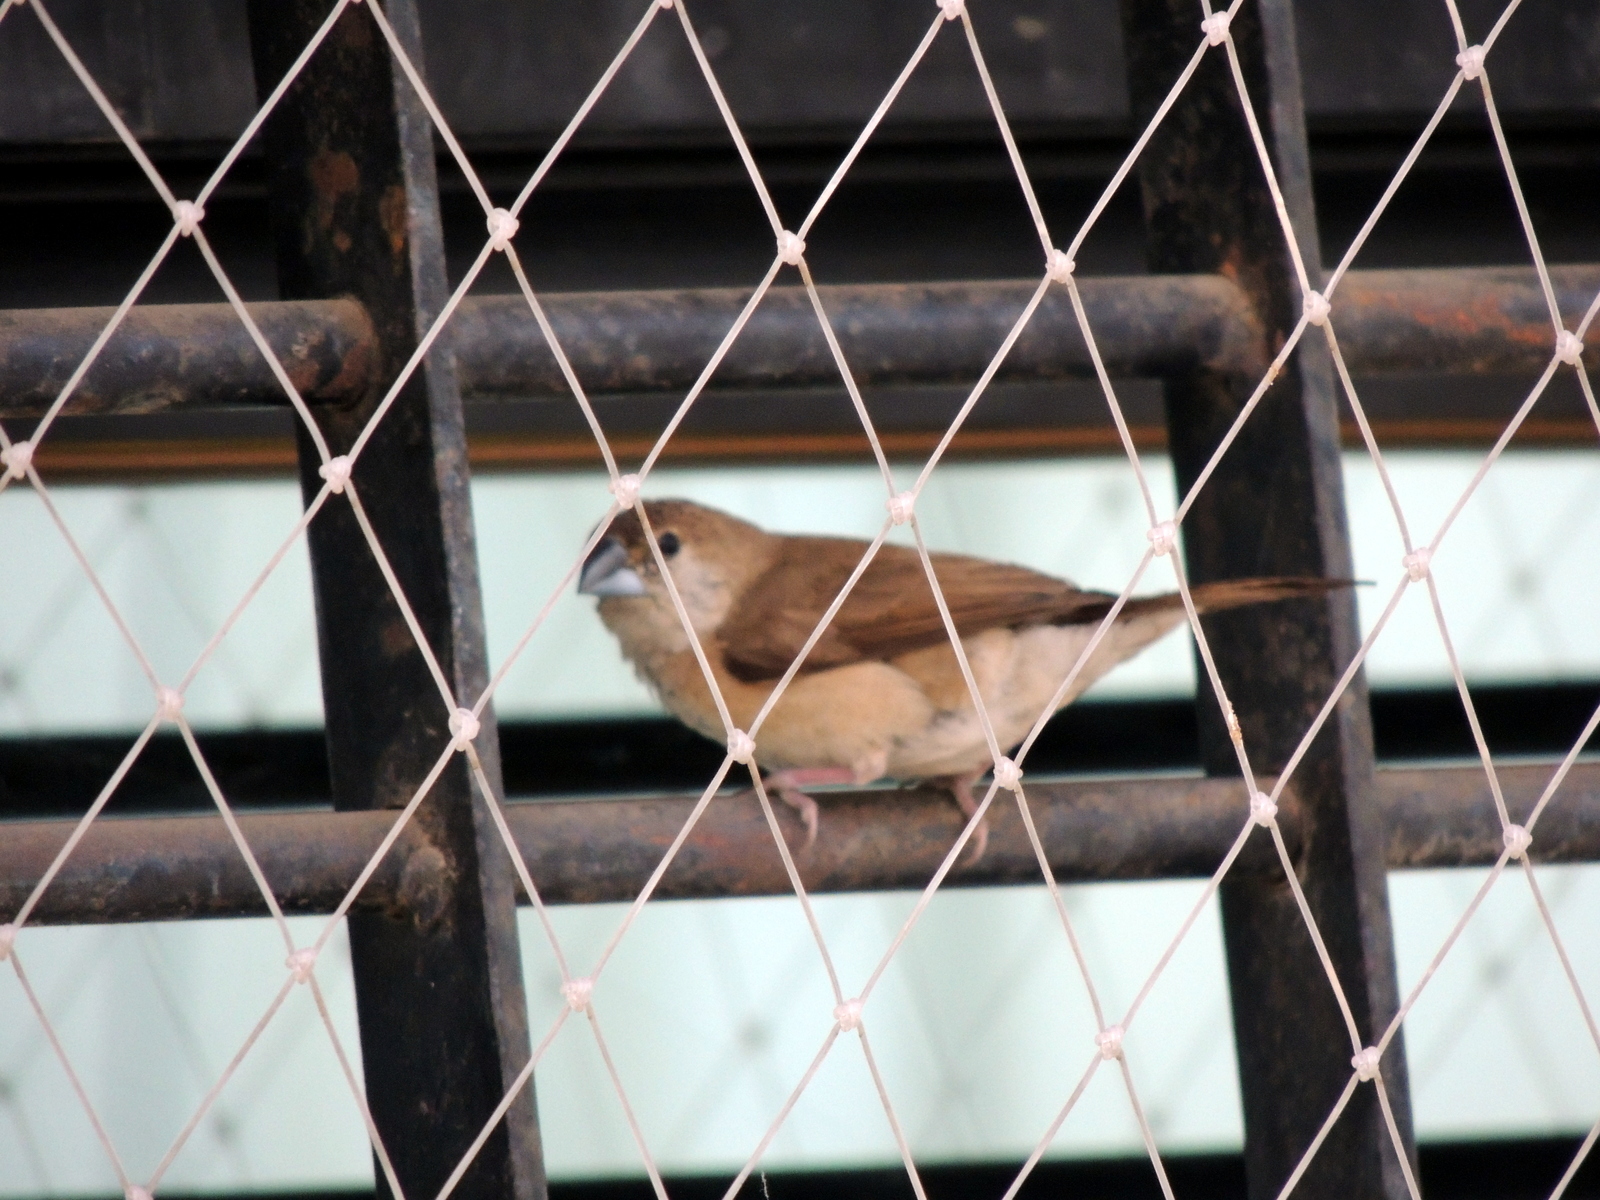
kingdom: Animalia
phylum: Chordata
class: Aves
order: Passeriformes
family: Estrildidae
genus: Euodice
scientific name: Euodice malabarica
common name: Indian silverbill
